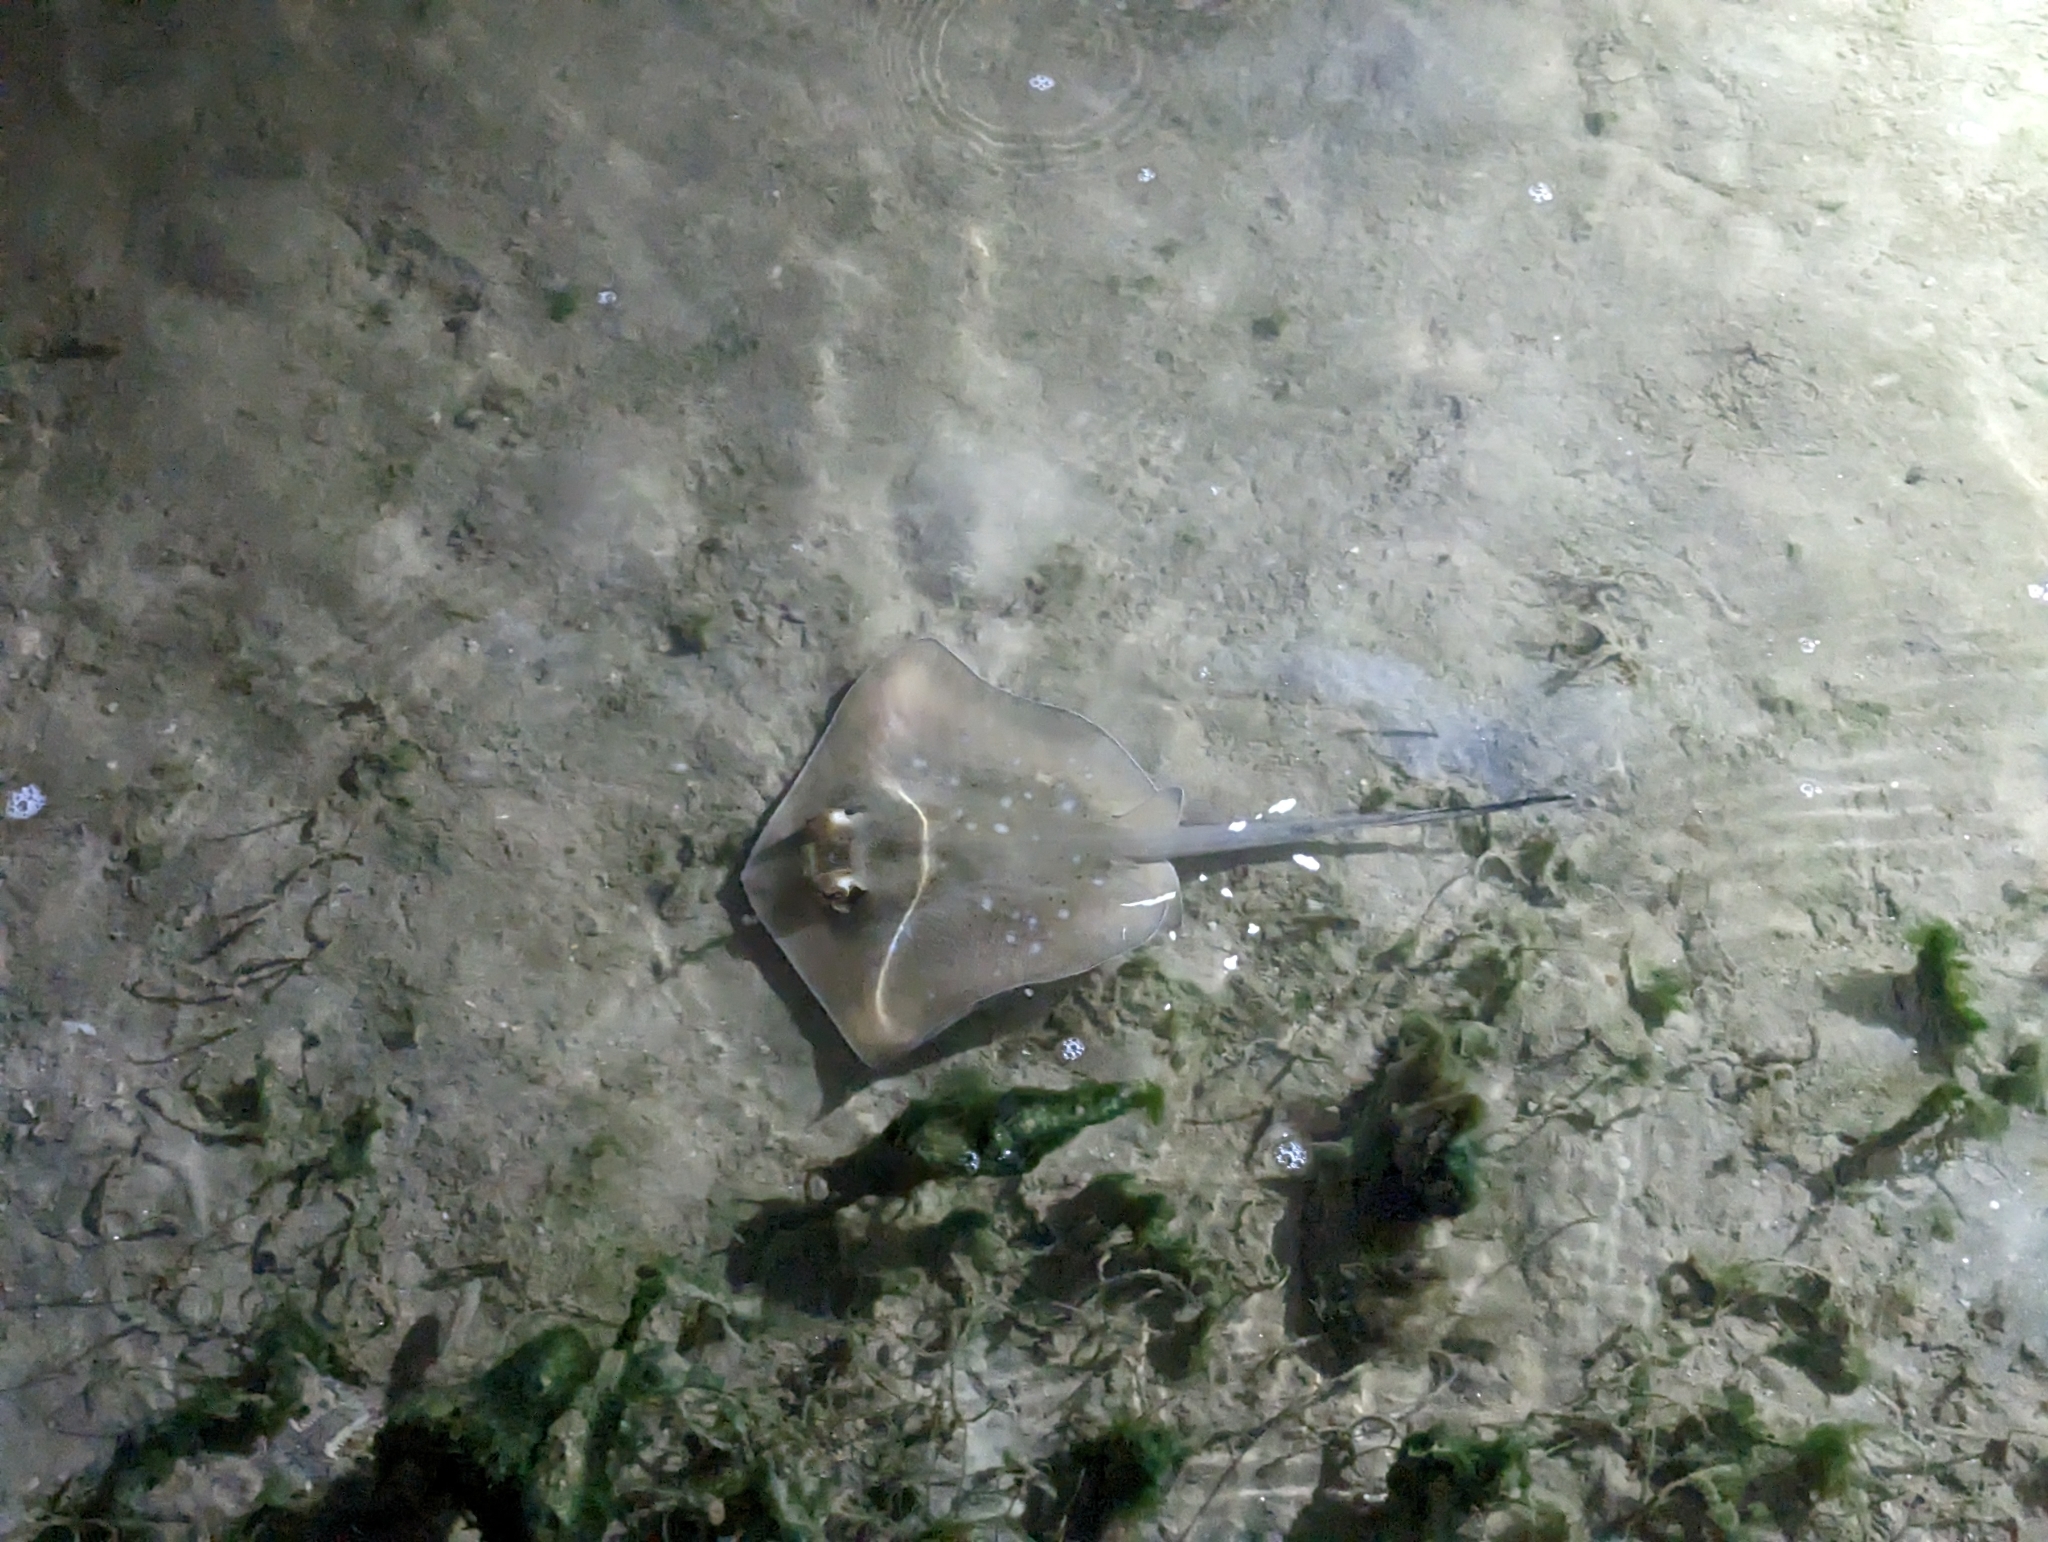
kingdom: Animalia
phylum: Chordata
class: Elasmobranchii
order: Myliobatiformes
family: Dasyatidae
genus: Neotrygon
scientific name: Neotrygon kuhlii
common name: Bluespotted stingray
